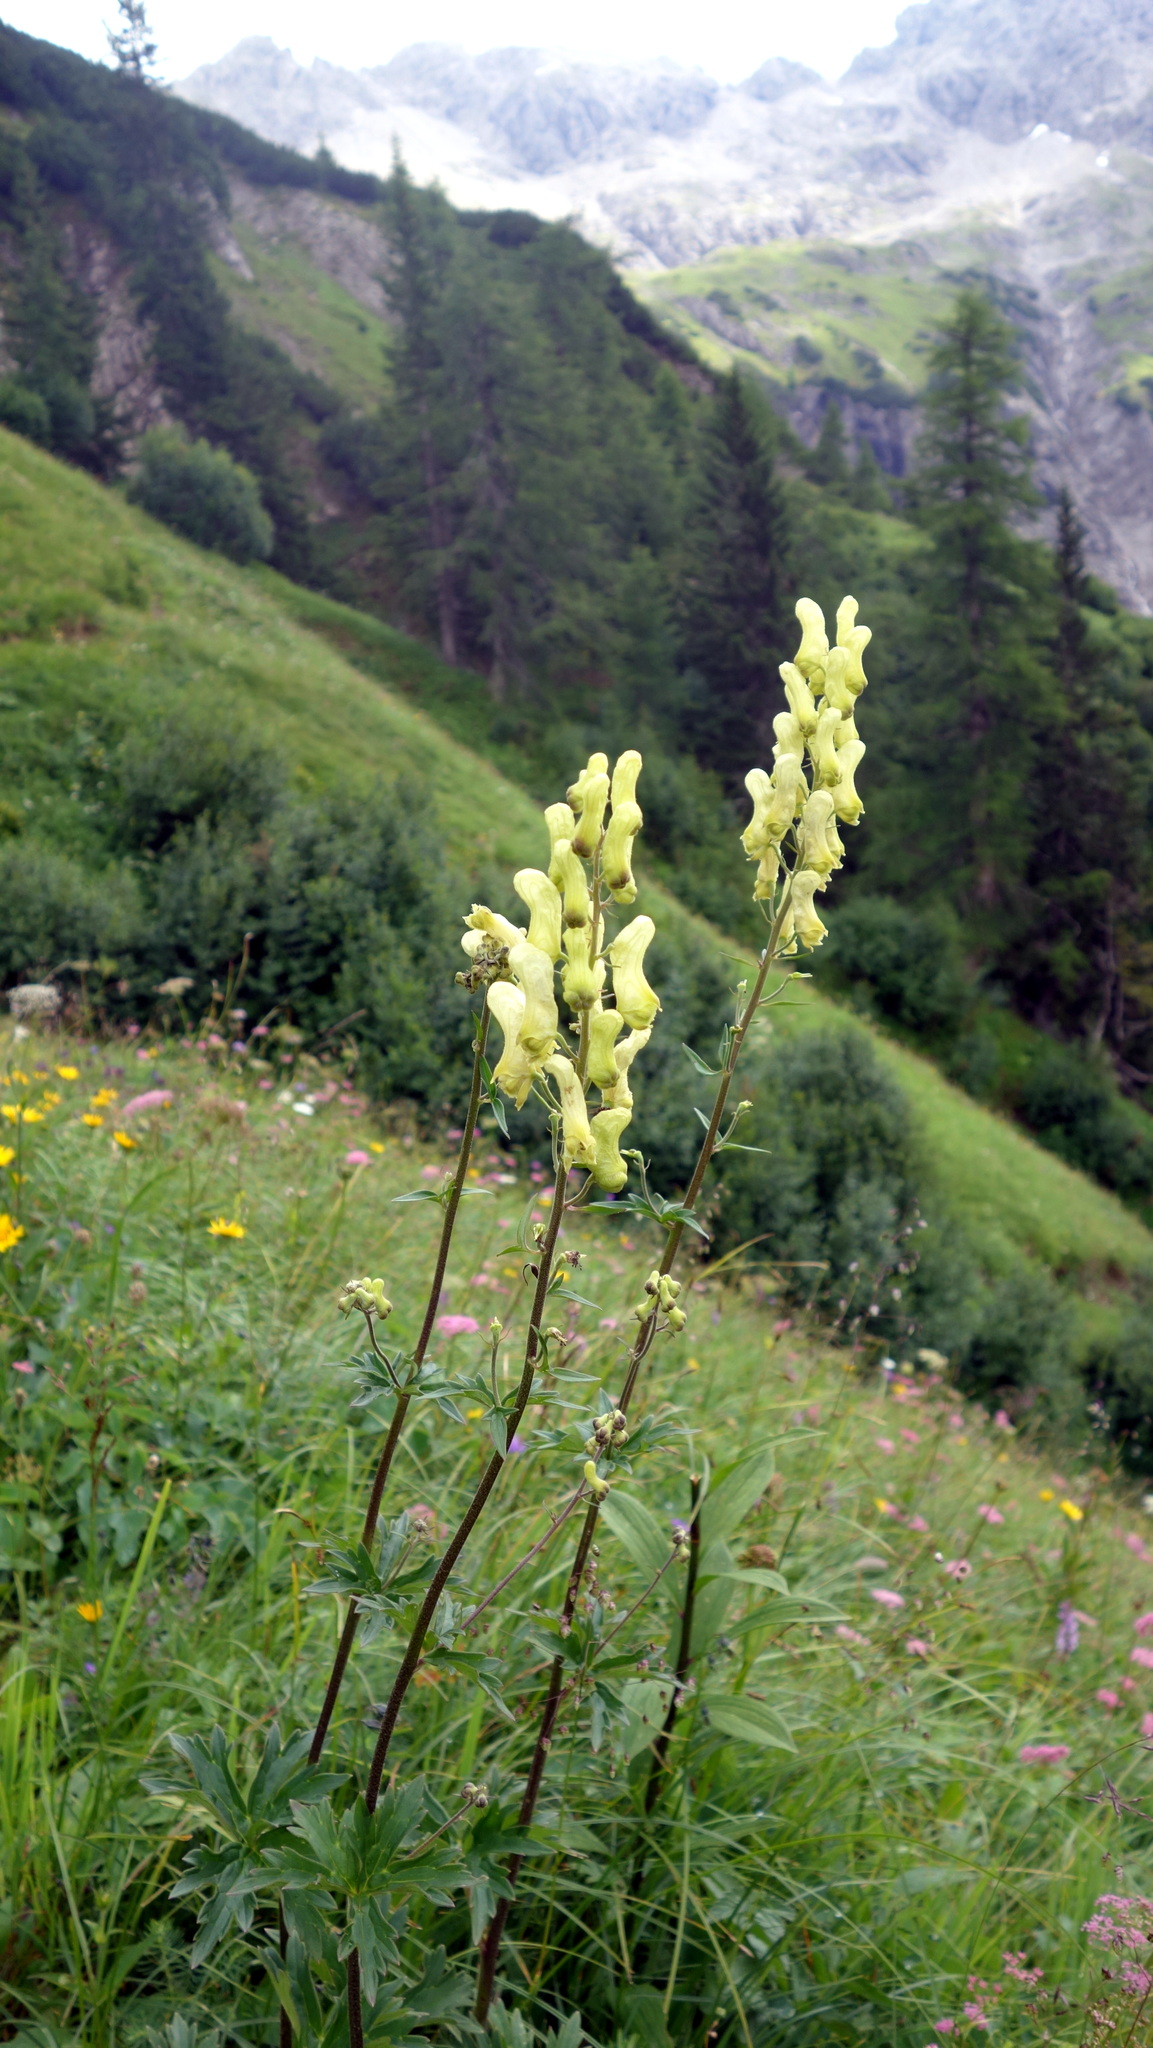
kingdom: Plantae
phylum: Tracheophyta
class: Magnoliopsida
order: Ranunculales
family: Ranunculaceae
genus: Aconitum
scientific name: Aconitum lycoctonum
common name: Wolf's-bane
